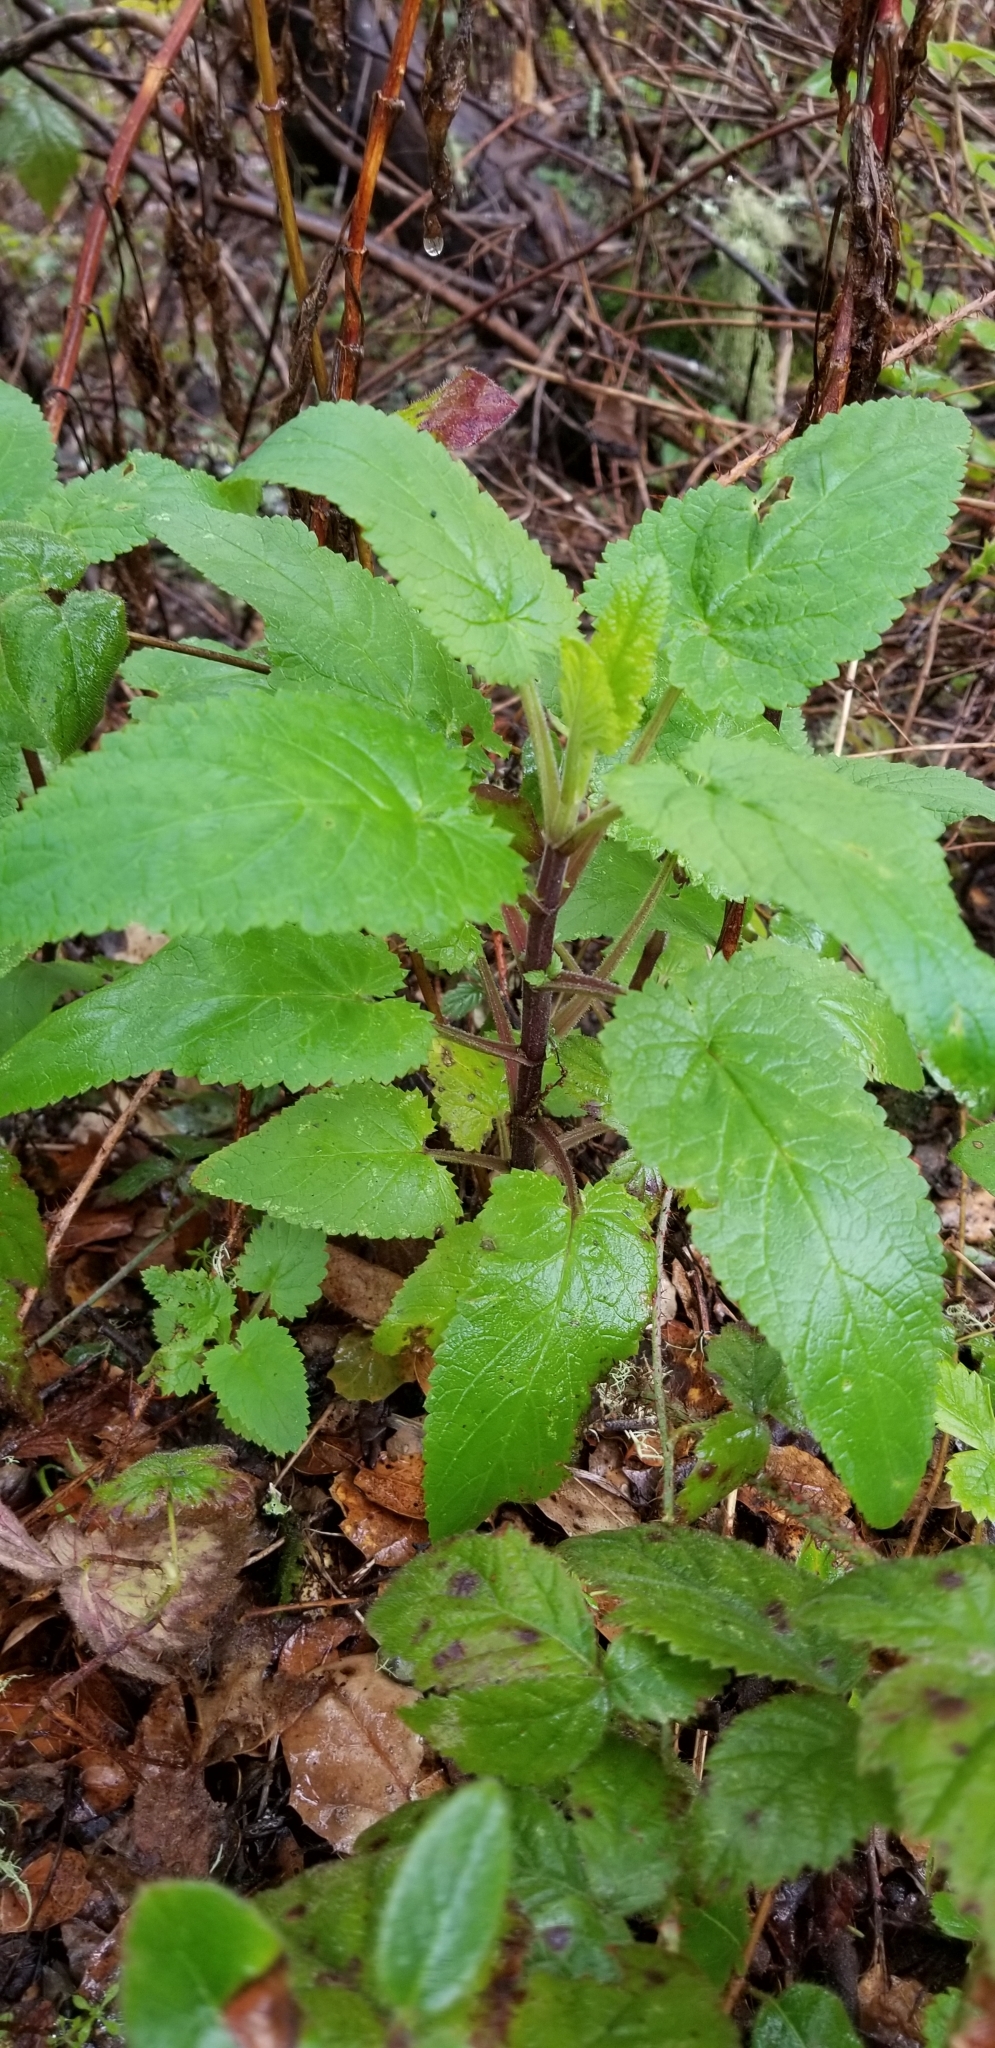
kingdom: Plantae
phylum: Tracheophyta
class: Magnoliopsida
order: Lamiales
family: Scrophulariaceae
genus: Scrophularia
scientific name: Scrophularia californica
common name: California figwort
